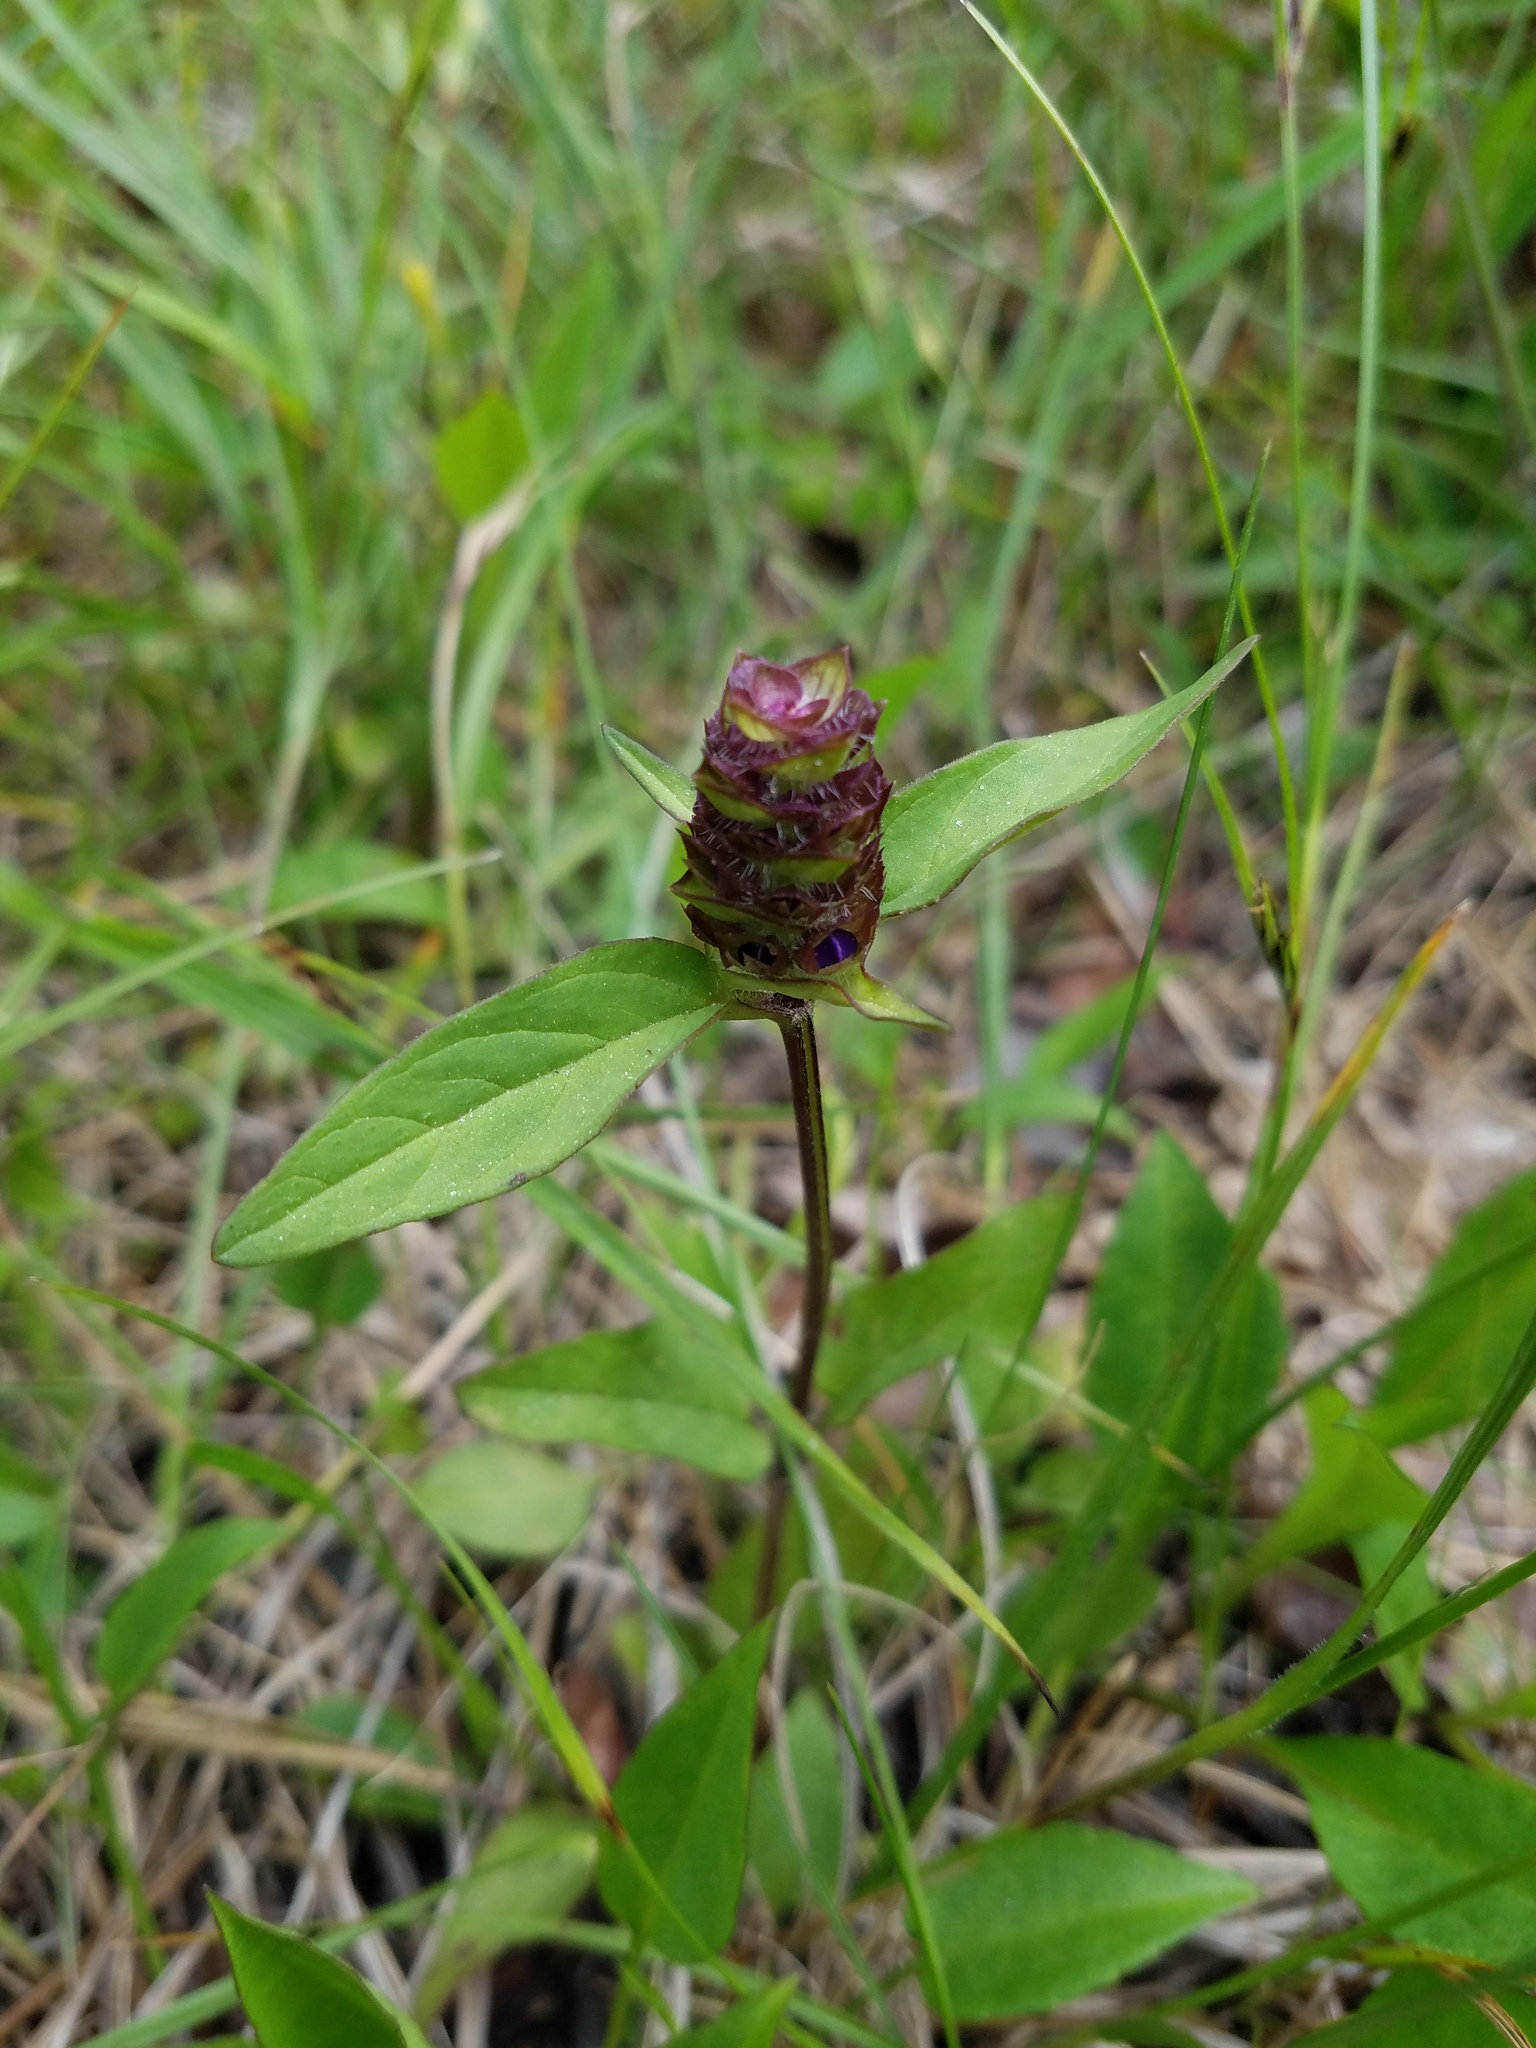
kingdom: Plantae
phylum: Tracheophyta
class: Magnoliopsida
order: Lamiales
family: Lamiaceae
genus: Prunella
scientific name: Prunella vulgaris
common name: Heal-all
